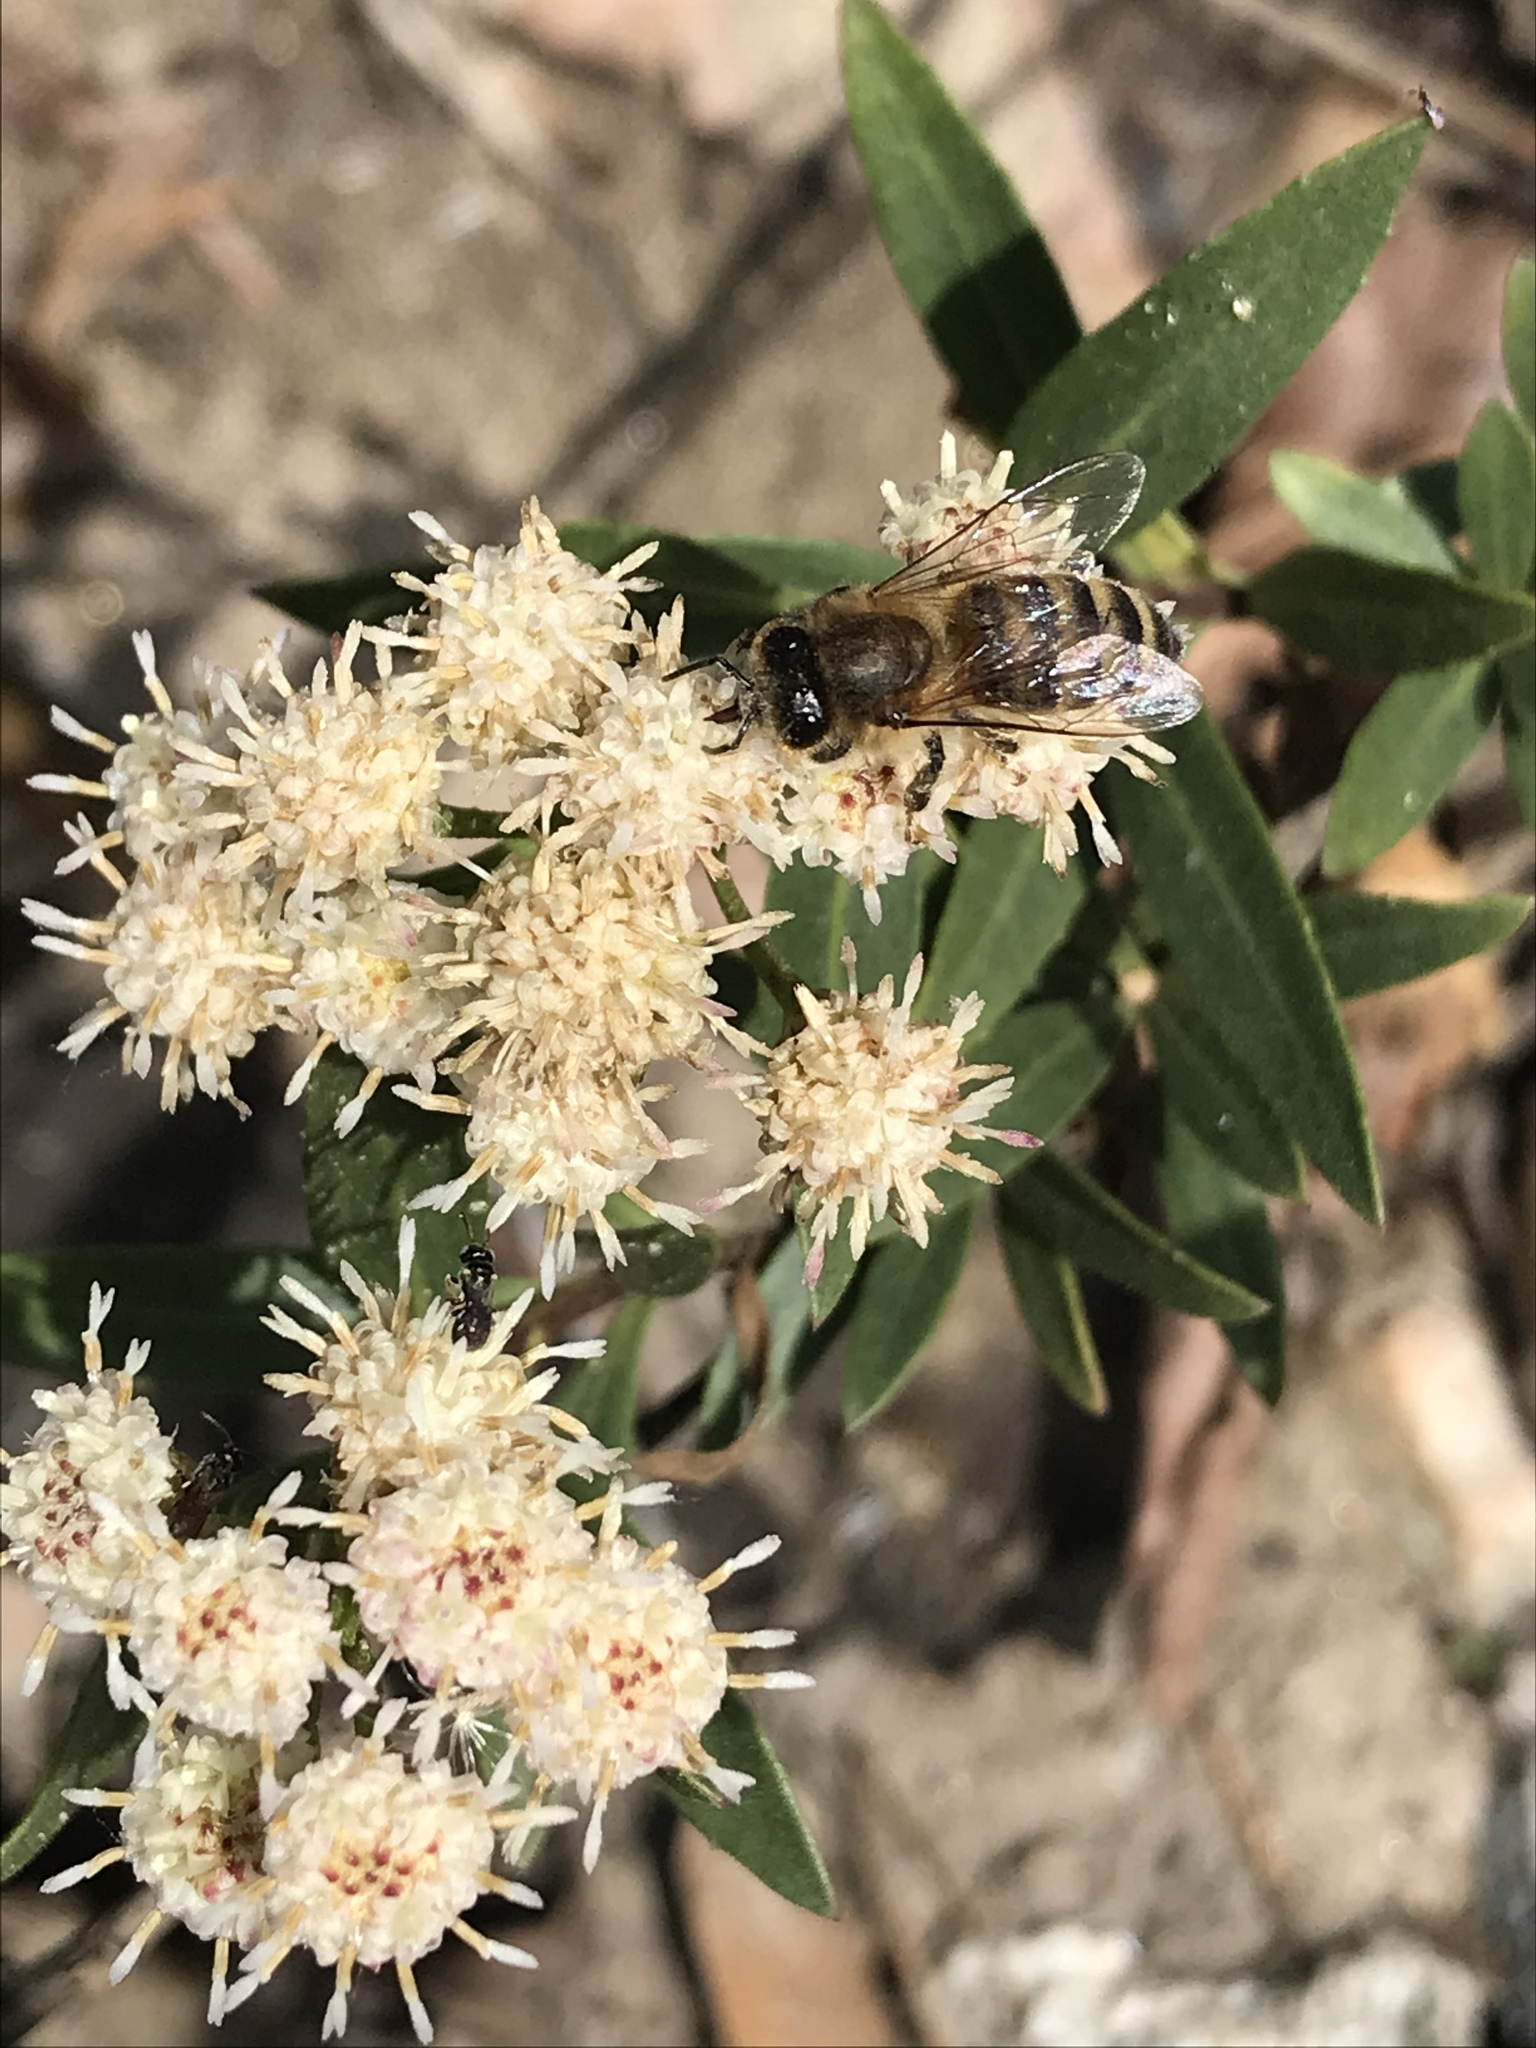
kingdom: Animalia
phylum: Arthropoda
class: Insecta
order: Hymenoptera
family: Apidae
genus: Apis
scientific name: Apis mellifera
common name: Honey bee
